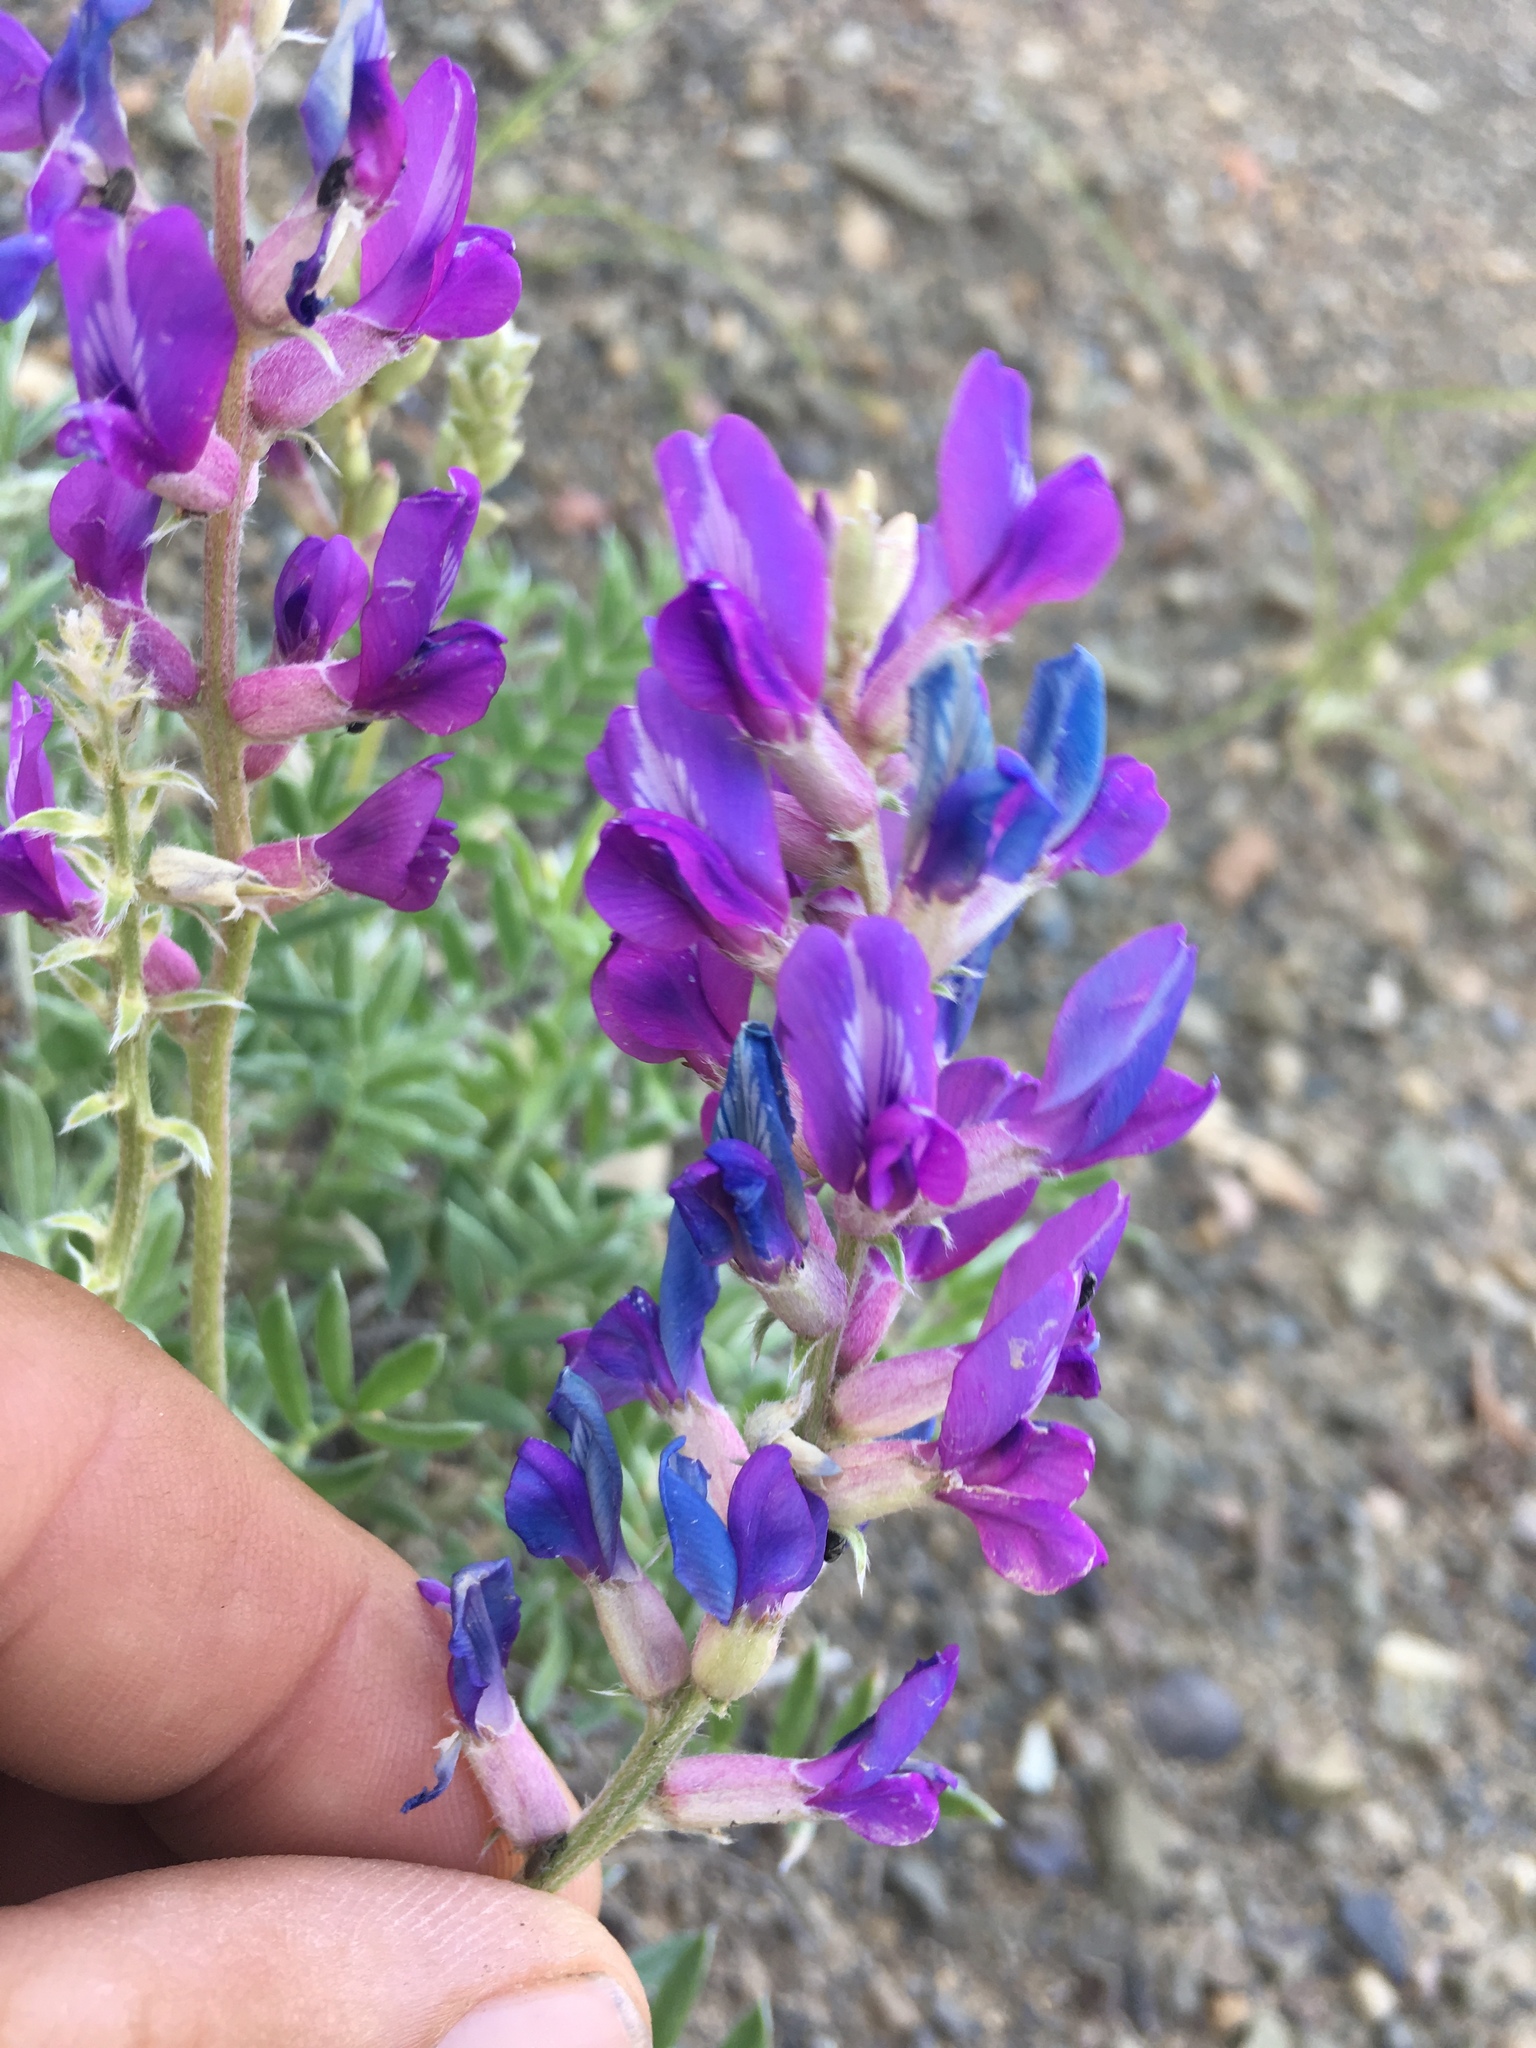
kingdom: Plantae
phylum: Tracheophyta
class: Magnoliopsida
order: Fabales
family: Fabaceae
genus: Oxytropis
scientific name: Oxytropis lambertii
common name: Purple locoweed
